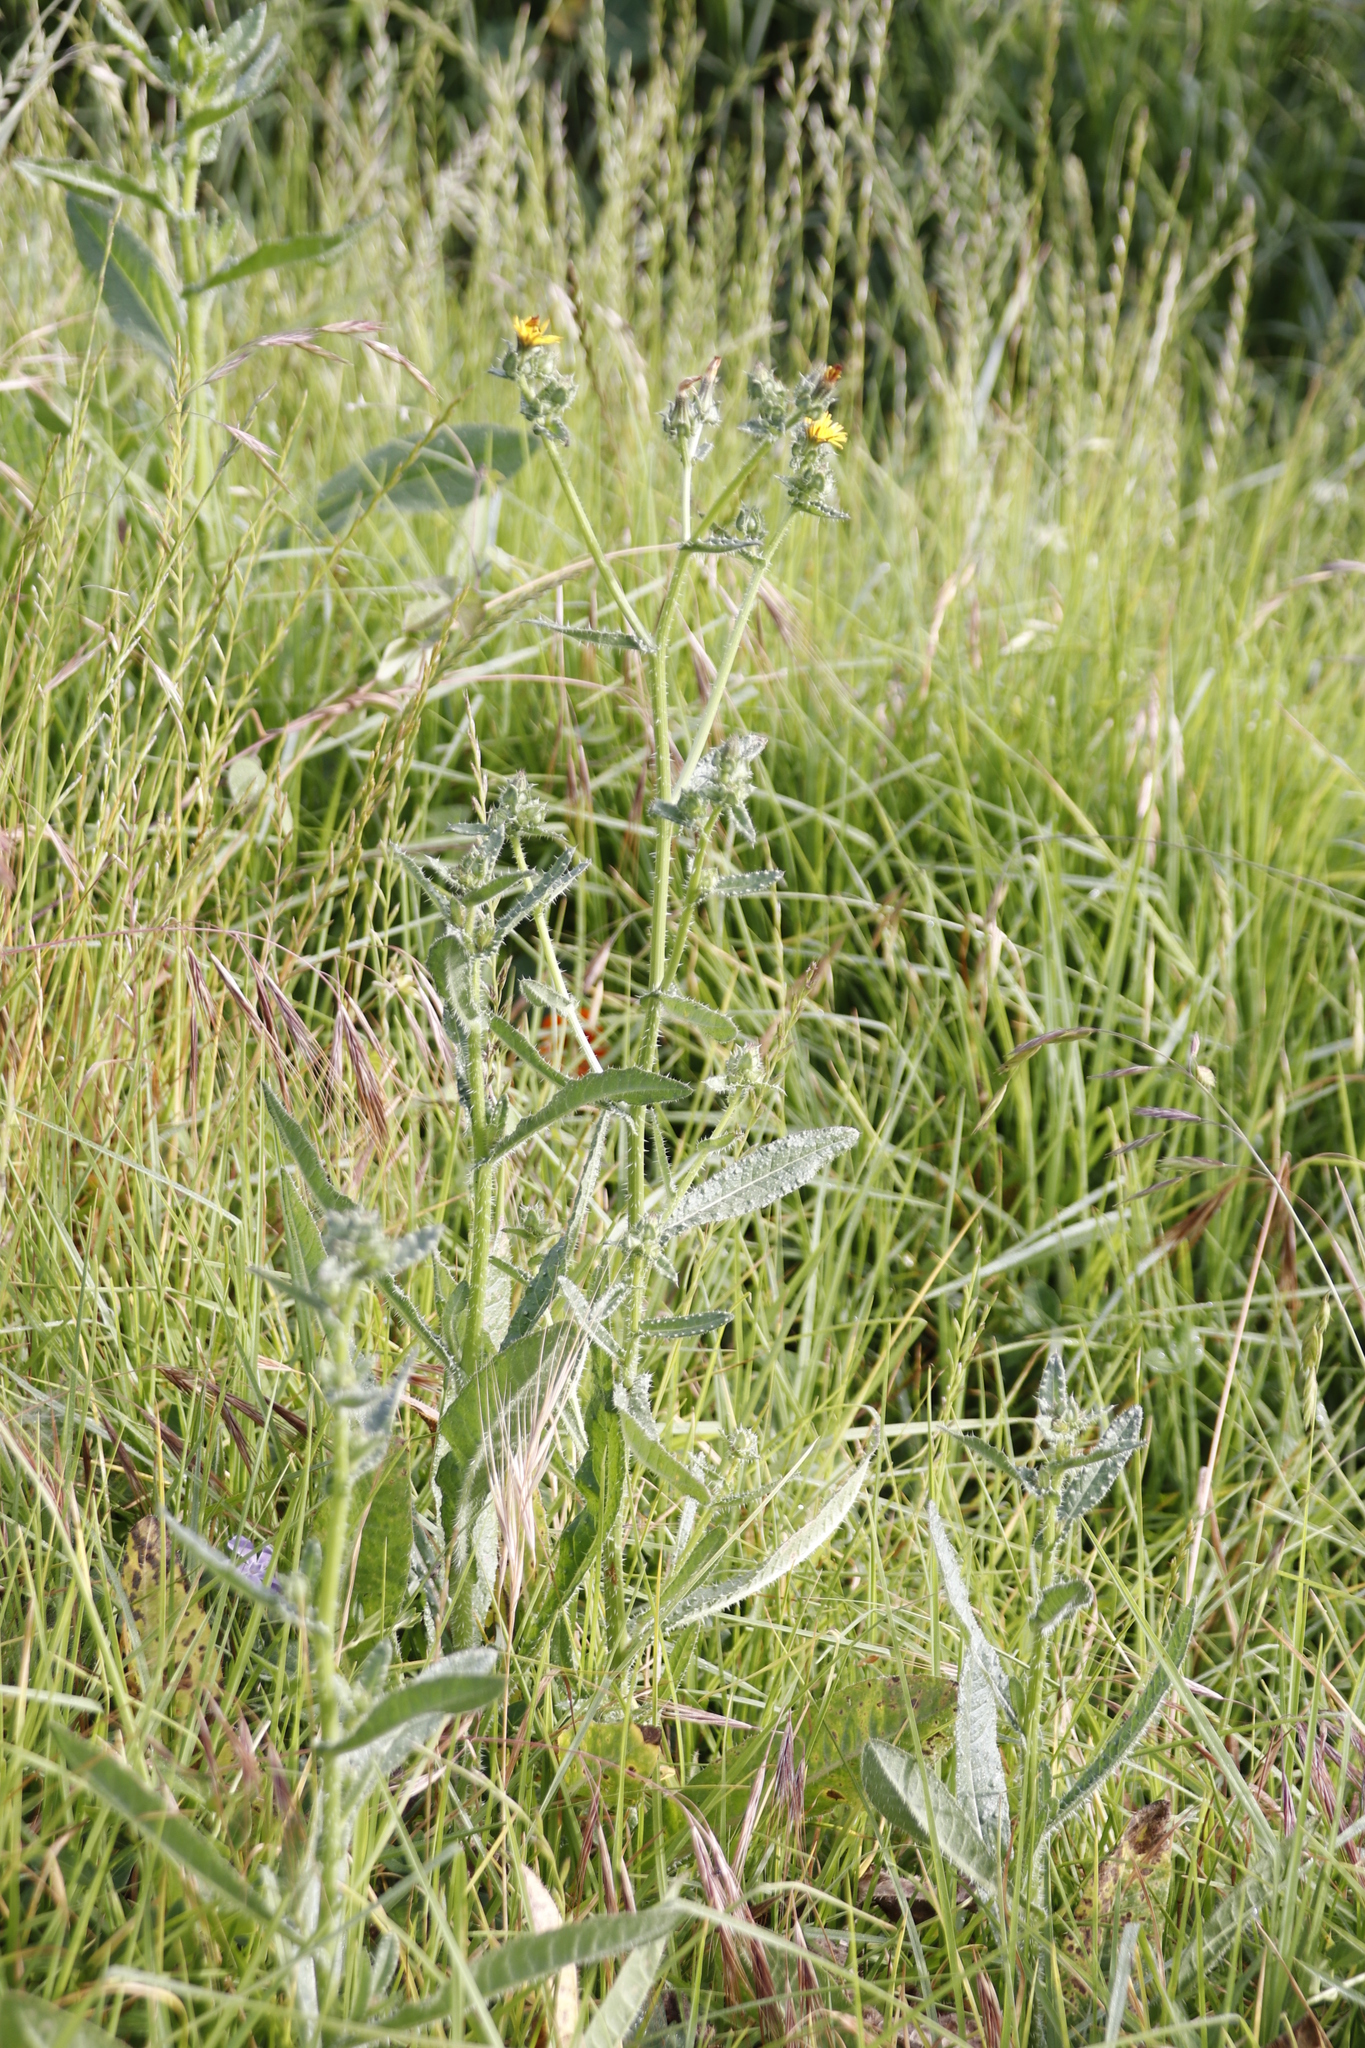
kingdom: Plantae
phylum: Tracheophyta
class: Magnoliopsida
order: Asterales
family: Asteraceae
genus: Helminthotheca
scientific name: Helminthotheca echioides
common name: Ox-tongue
